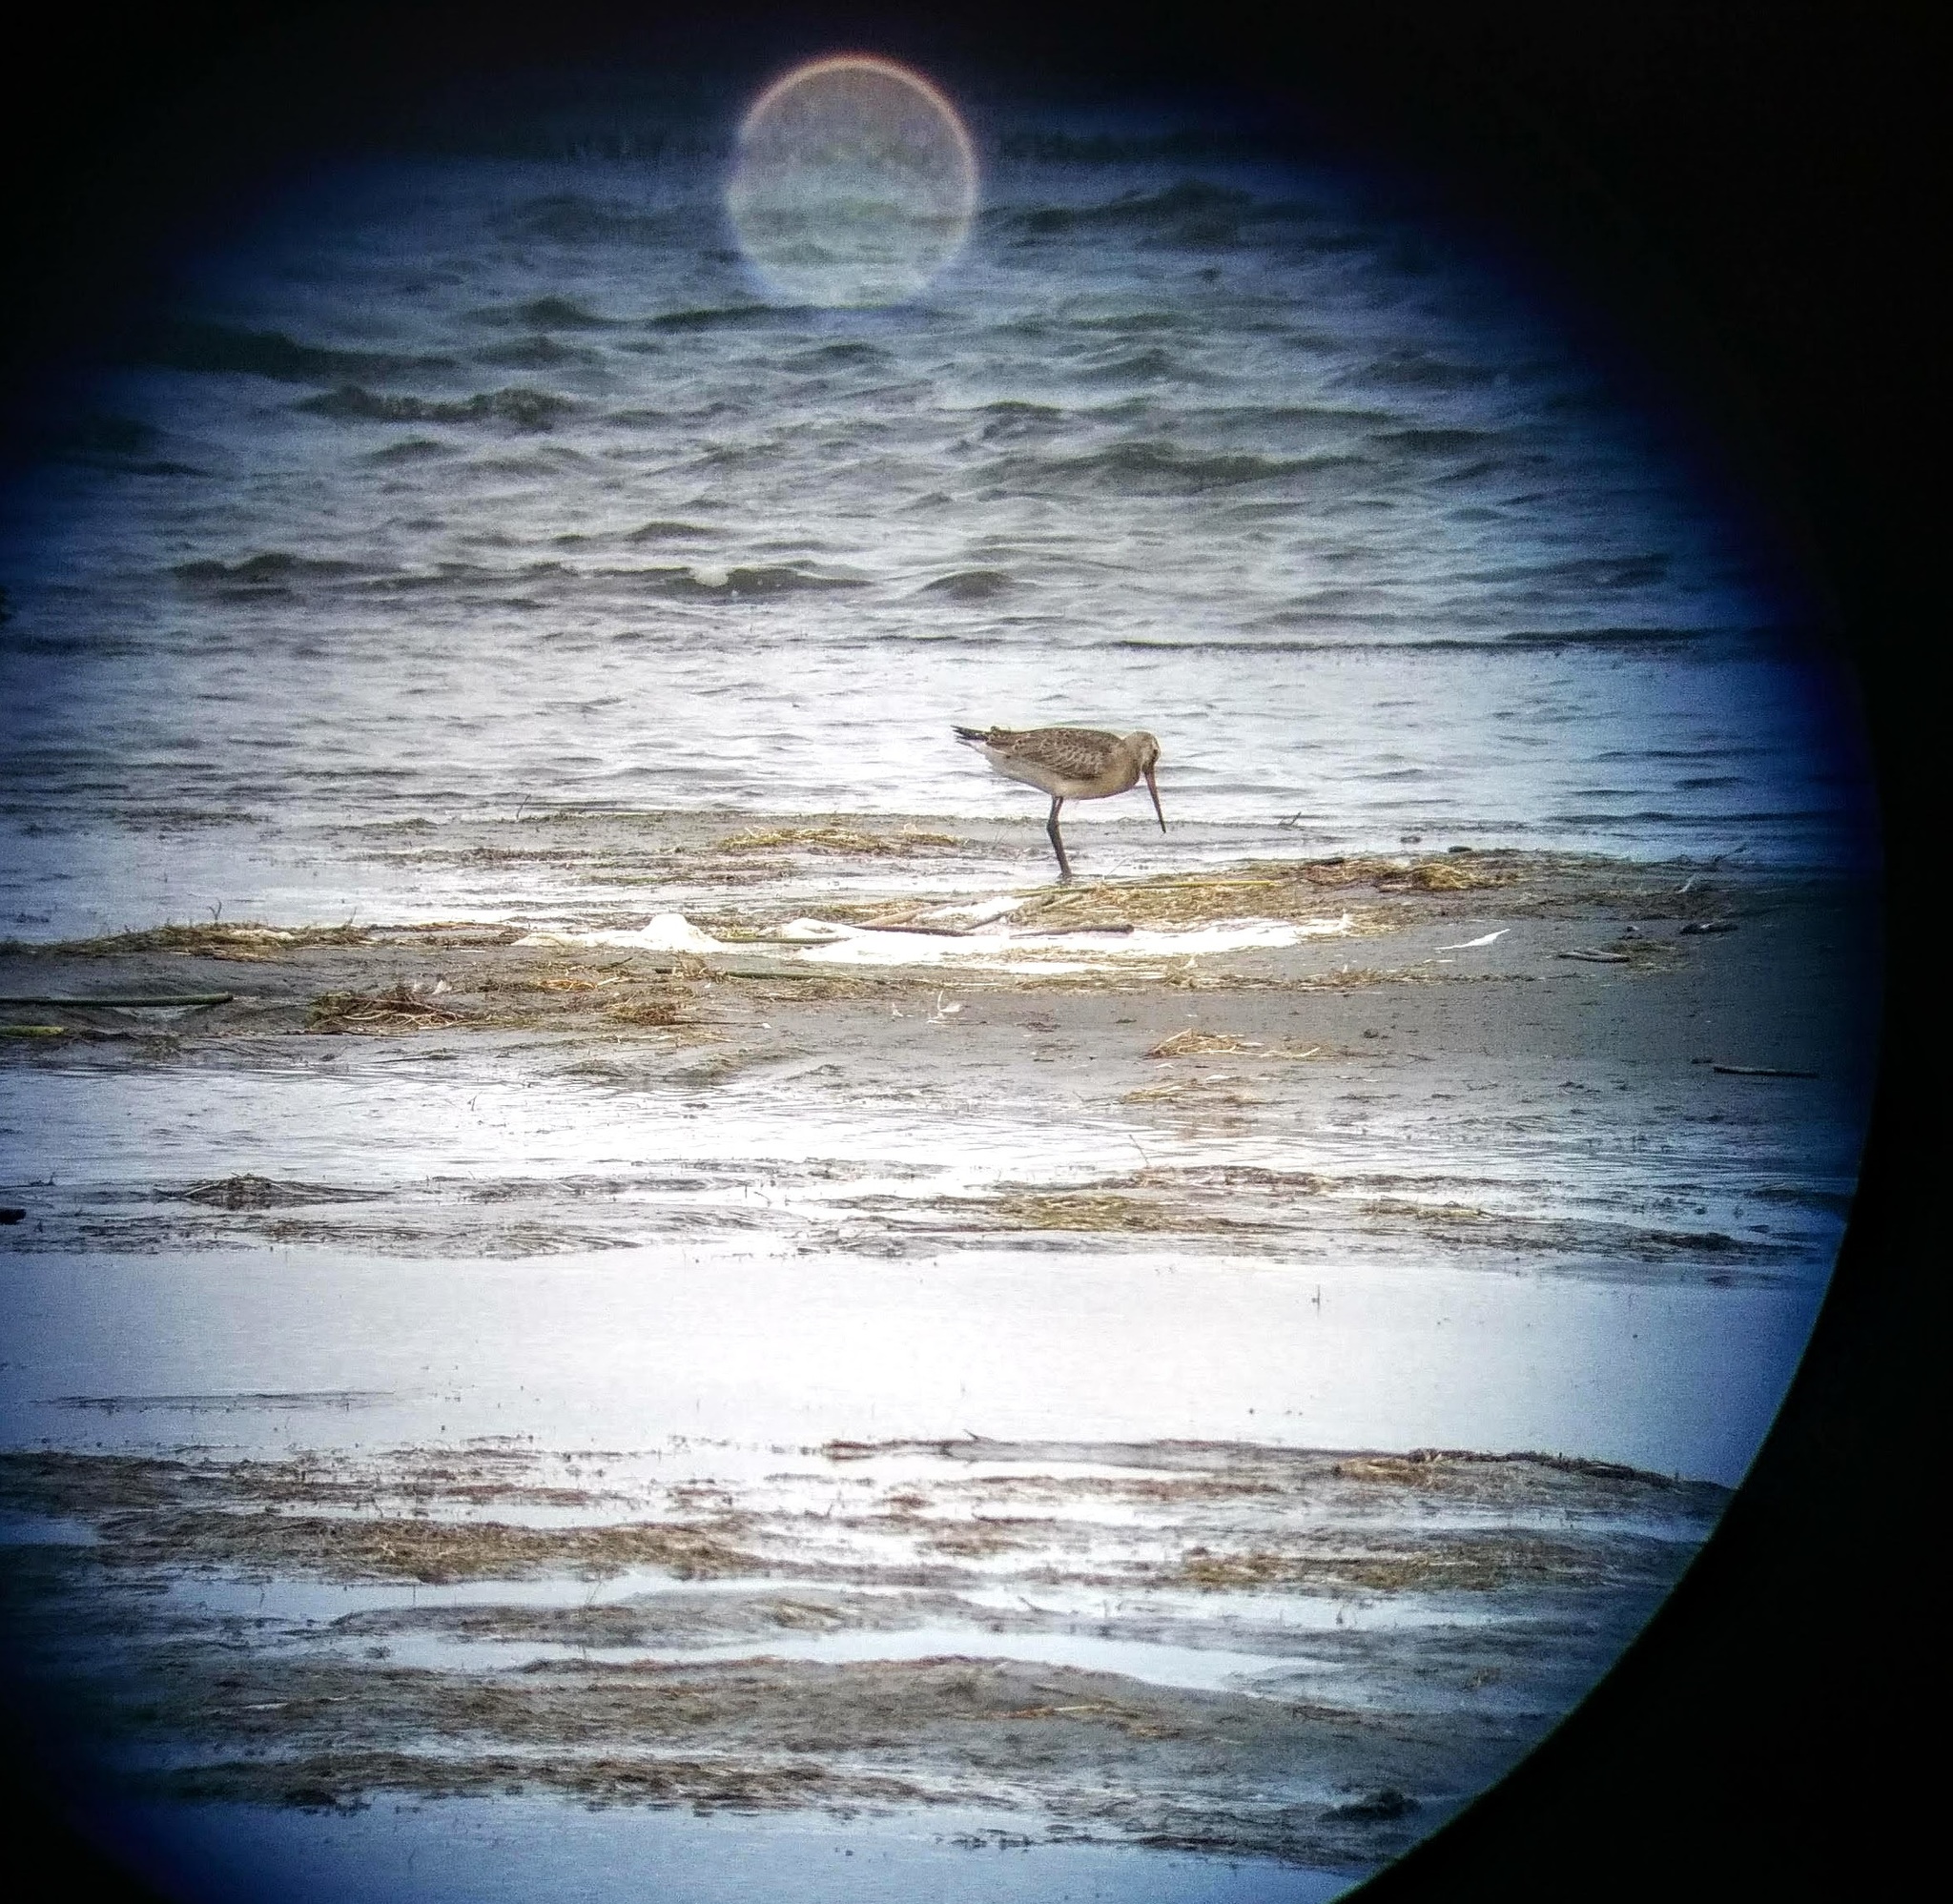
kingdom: Animalia
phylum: Chordata
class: Aves
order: Charadriiformes
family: Scolopacidae
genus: Limosa
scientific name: Limosa haemastica
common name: Hudsonian godwit
